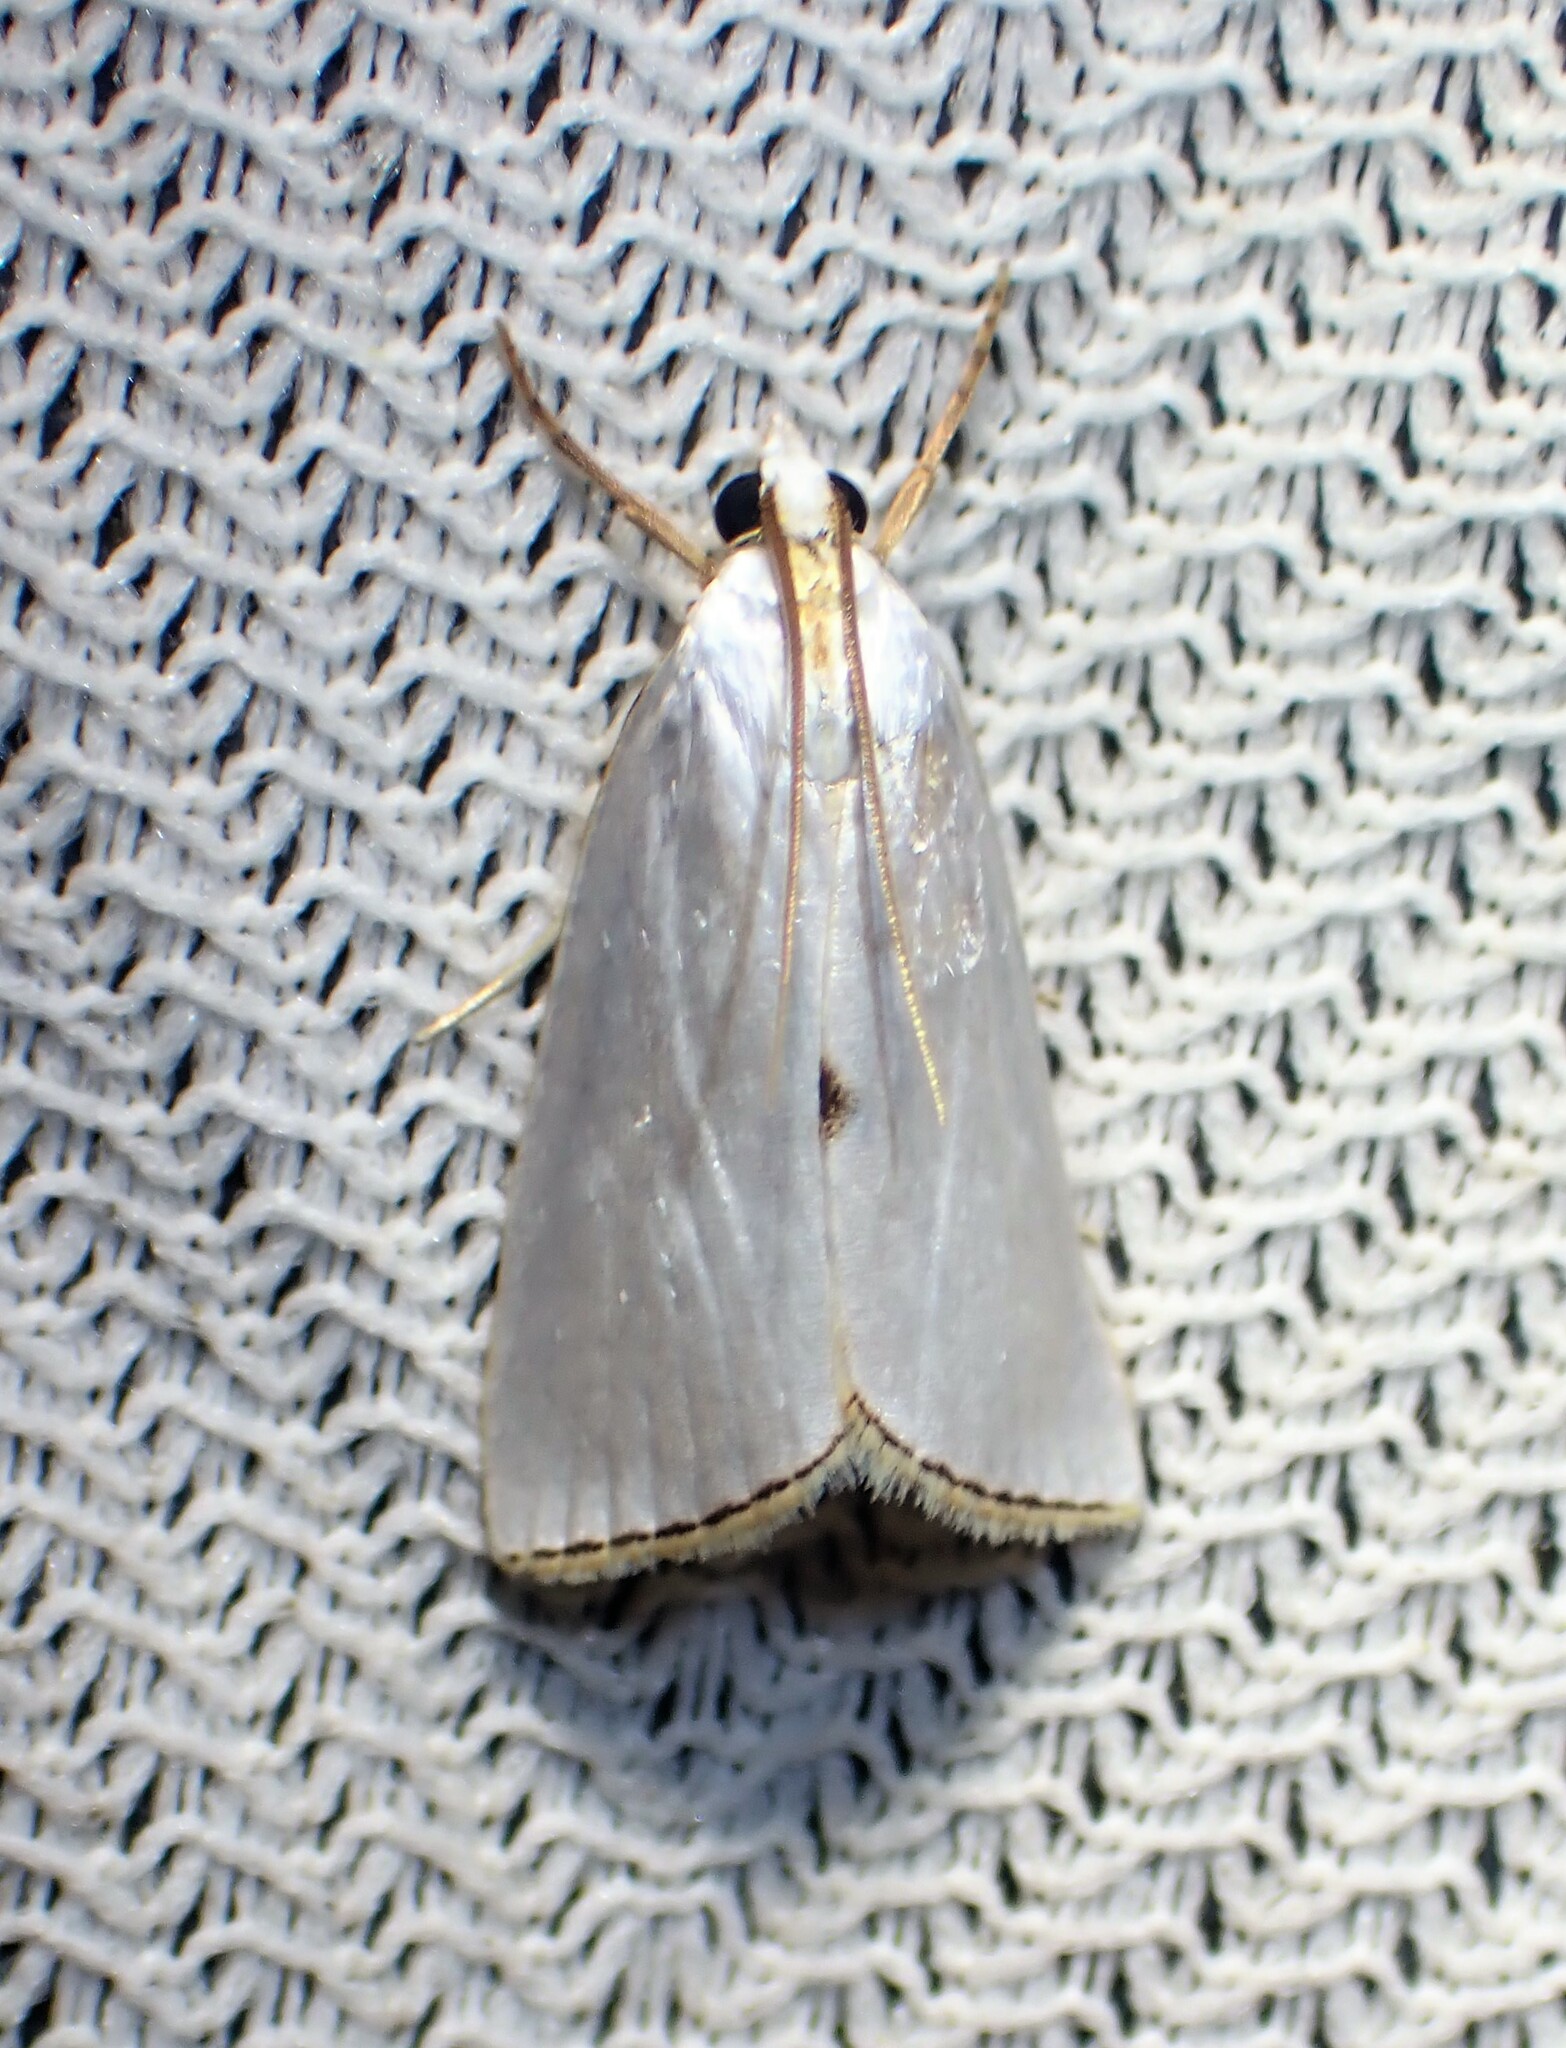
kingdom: Animalia
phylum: Arthropoda
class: Insecta
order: Lepidoptera
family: Crambidae
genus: Argyria
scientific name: Argyria nivalis
